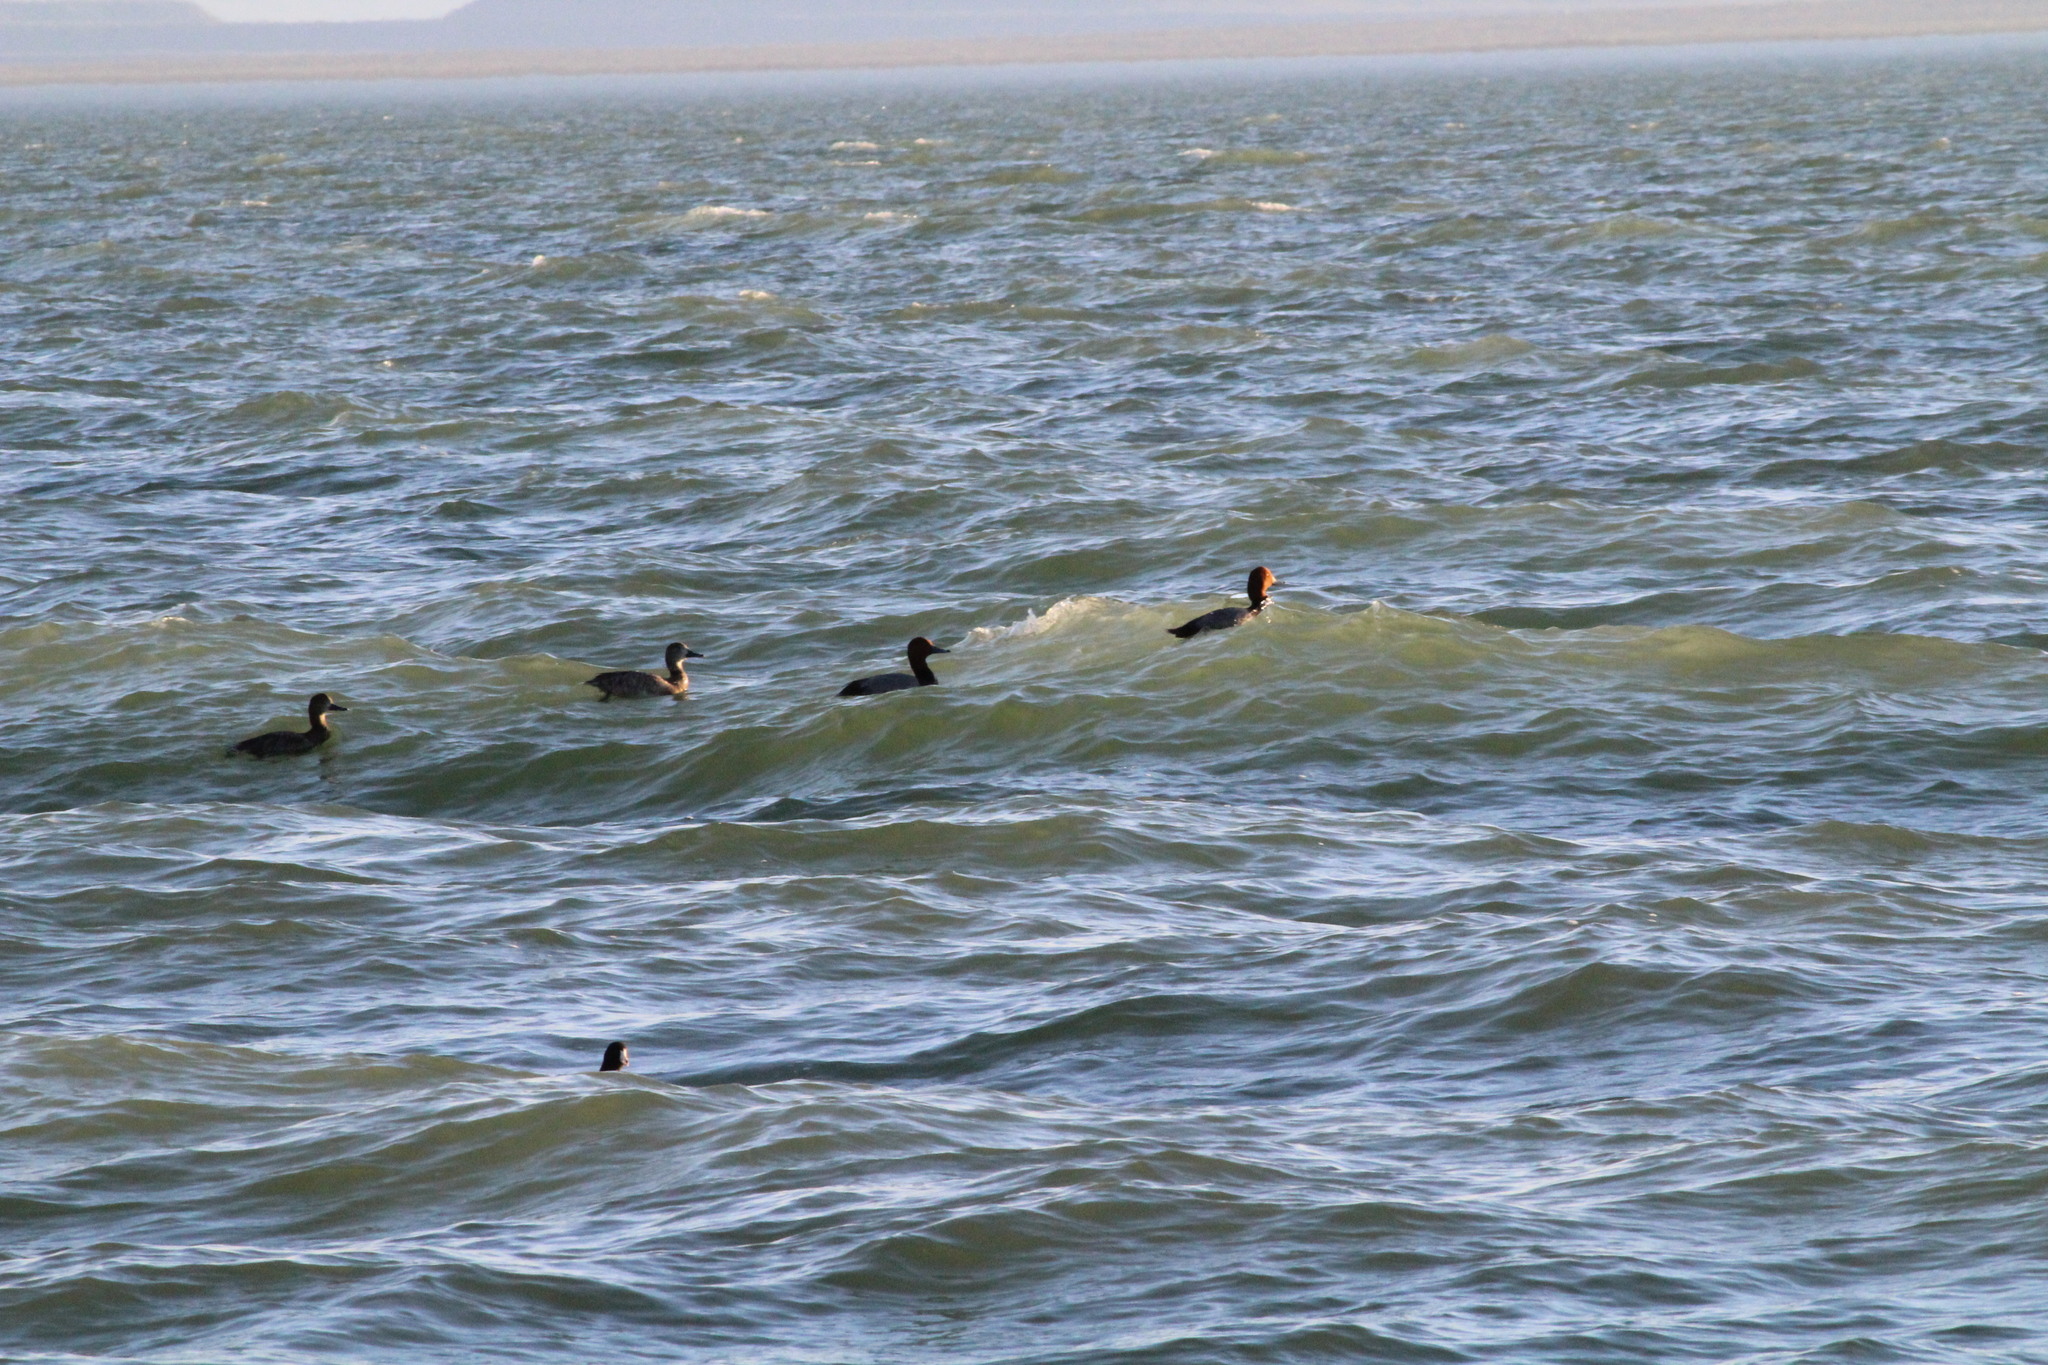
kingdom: Animalia
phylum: Chordata
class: Aves
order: Anseriformes
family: Anatidae
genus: Aythya
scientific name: Aythya americana
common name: Redhead
